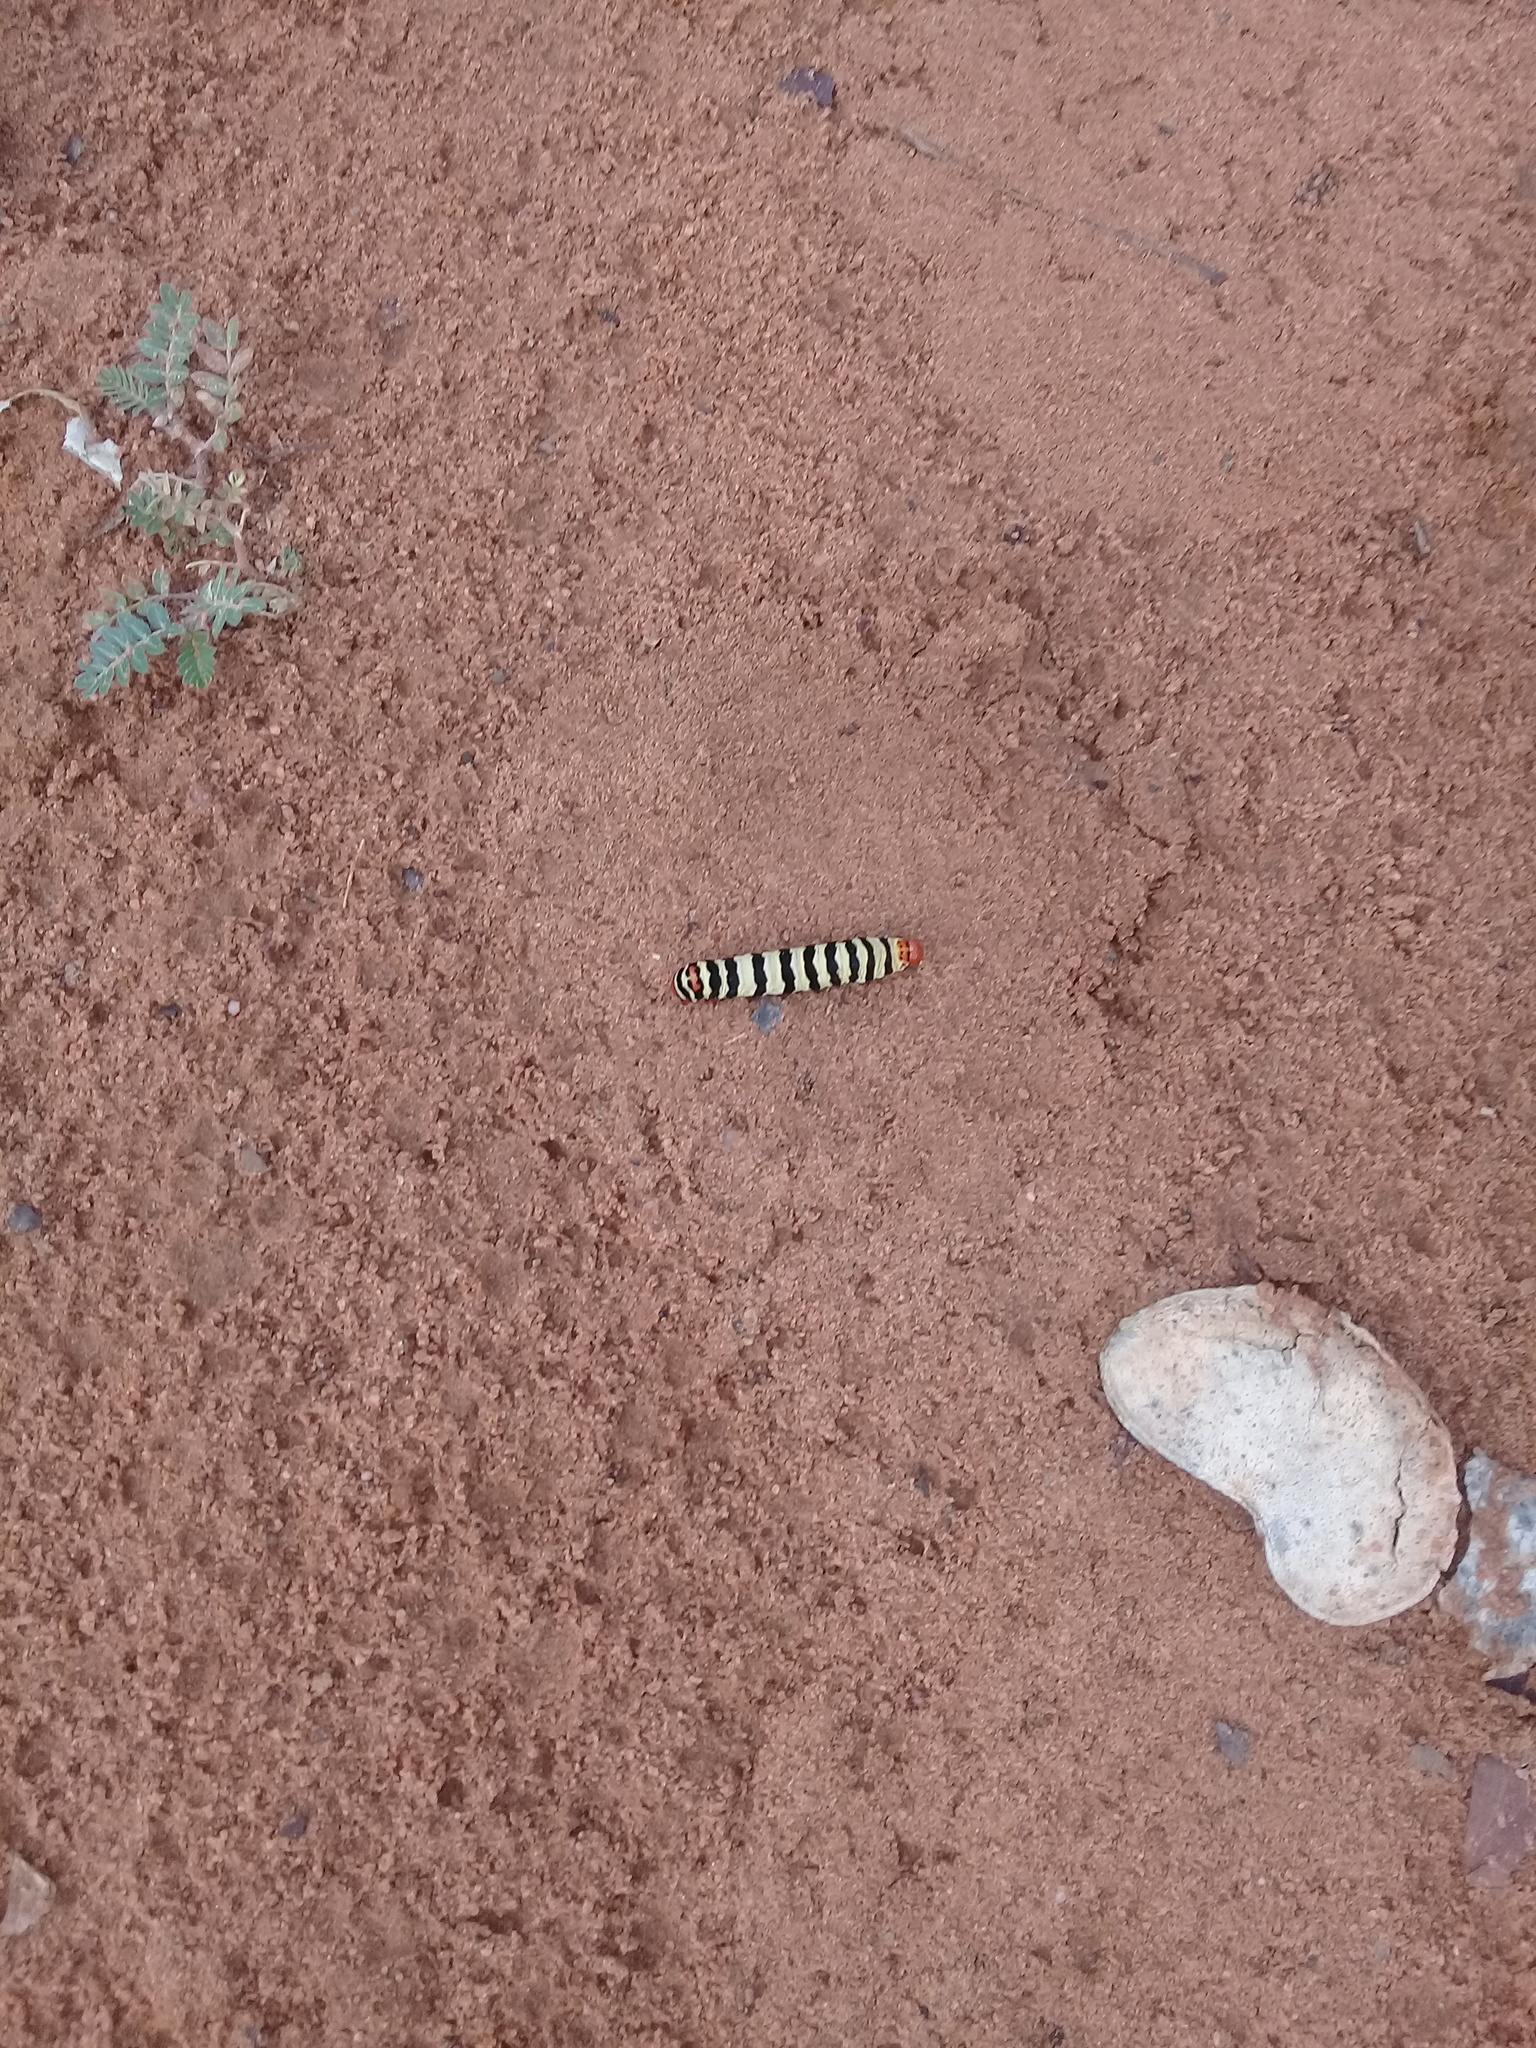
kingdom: Animalia
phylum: Arthropoda
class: Insecta
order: Lepidoptera
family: Noctuidae
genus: Diaphone
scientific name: Diaphone eumela
